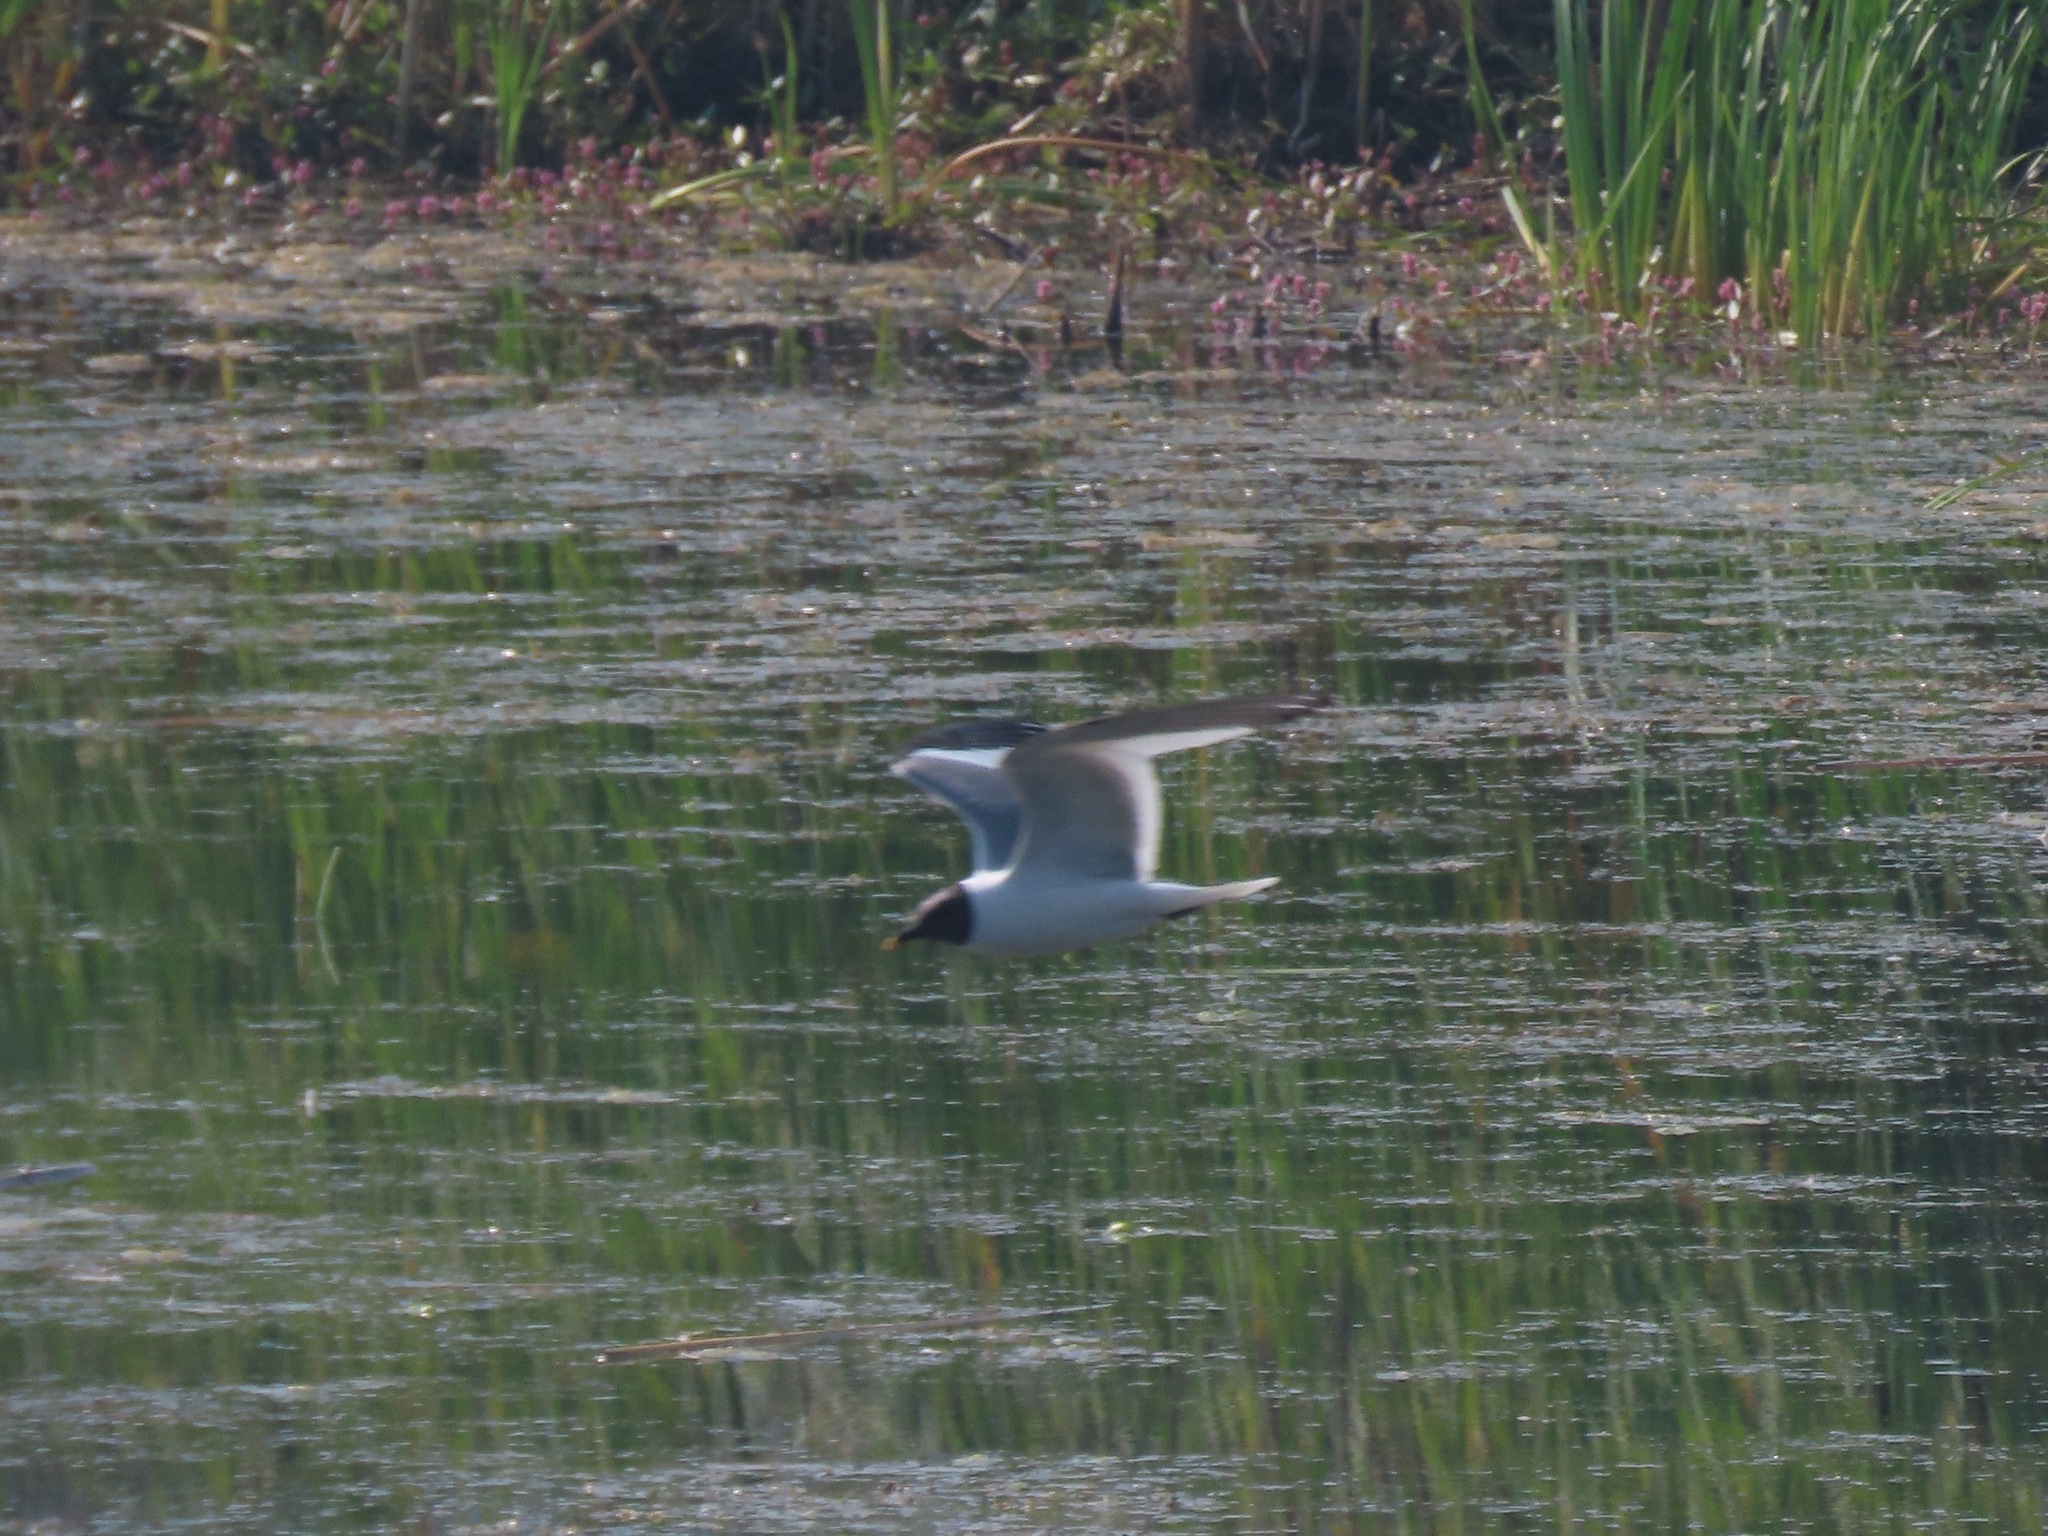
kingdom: Animalia
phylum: Chordata
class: Aves
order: Charadriiformes
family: Laridae
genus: Xema
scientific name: Xema sabini
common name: Sabine's gull
